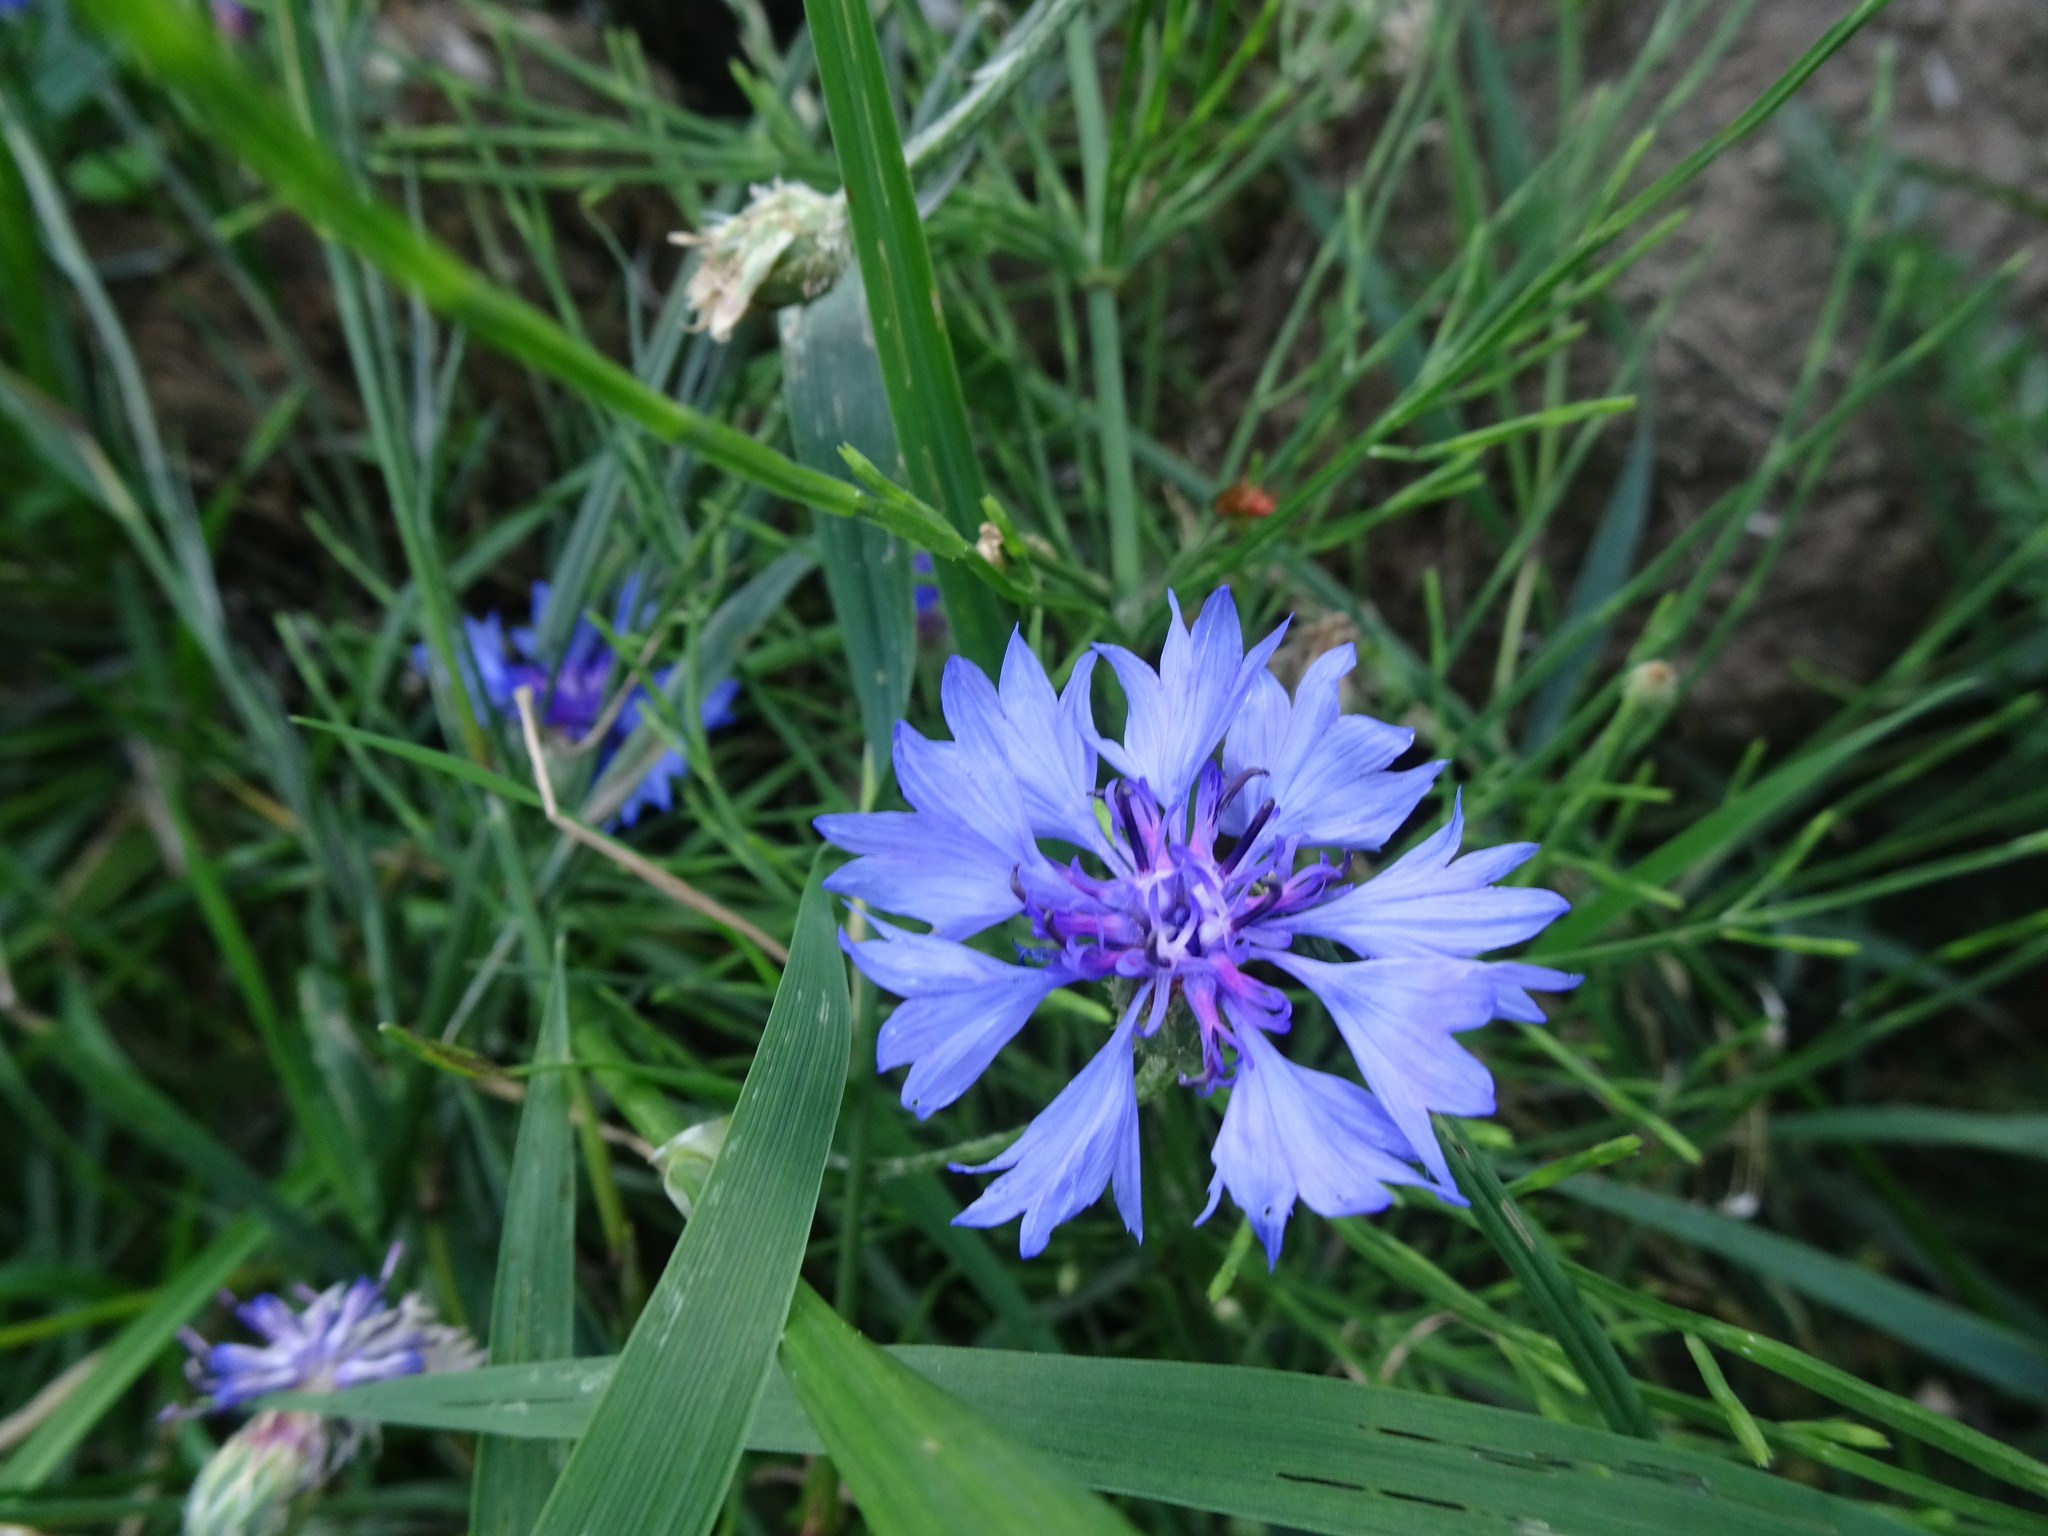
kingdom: Plantae
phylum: Tracheophyta
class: Magnoliopsida
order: Asterales
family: Asteraceae
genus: Centaurea
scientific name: Centaurea cyanus
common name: Cornflower
